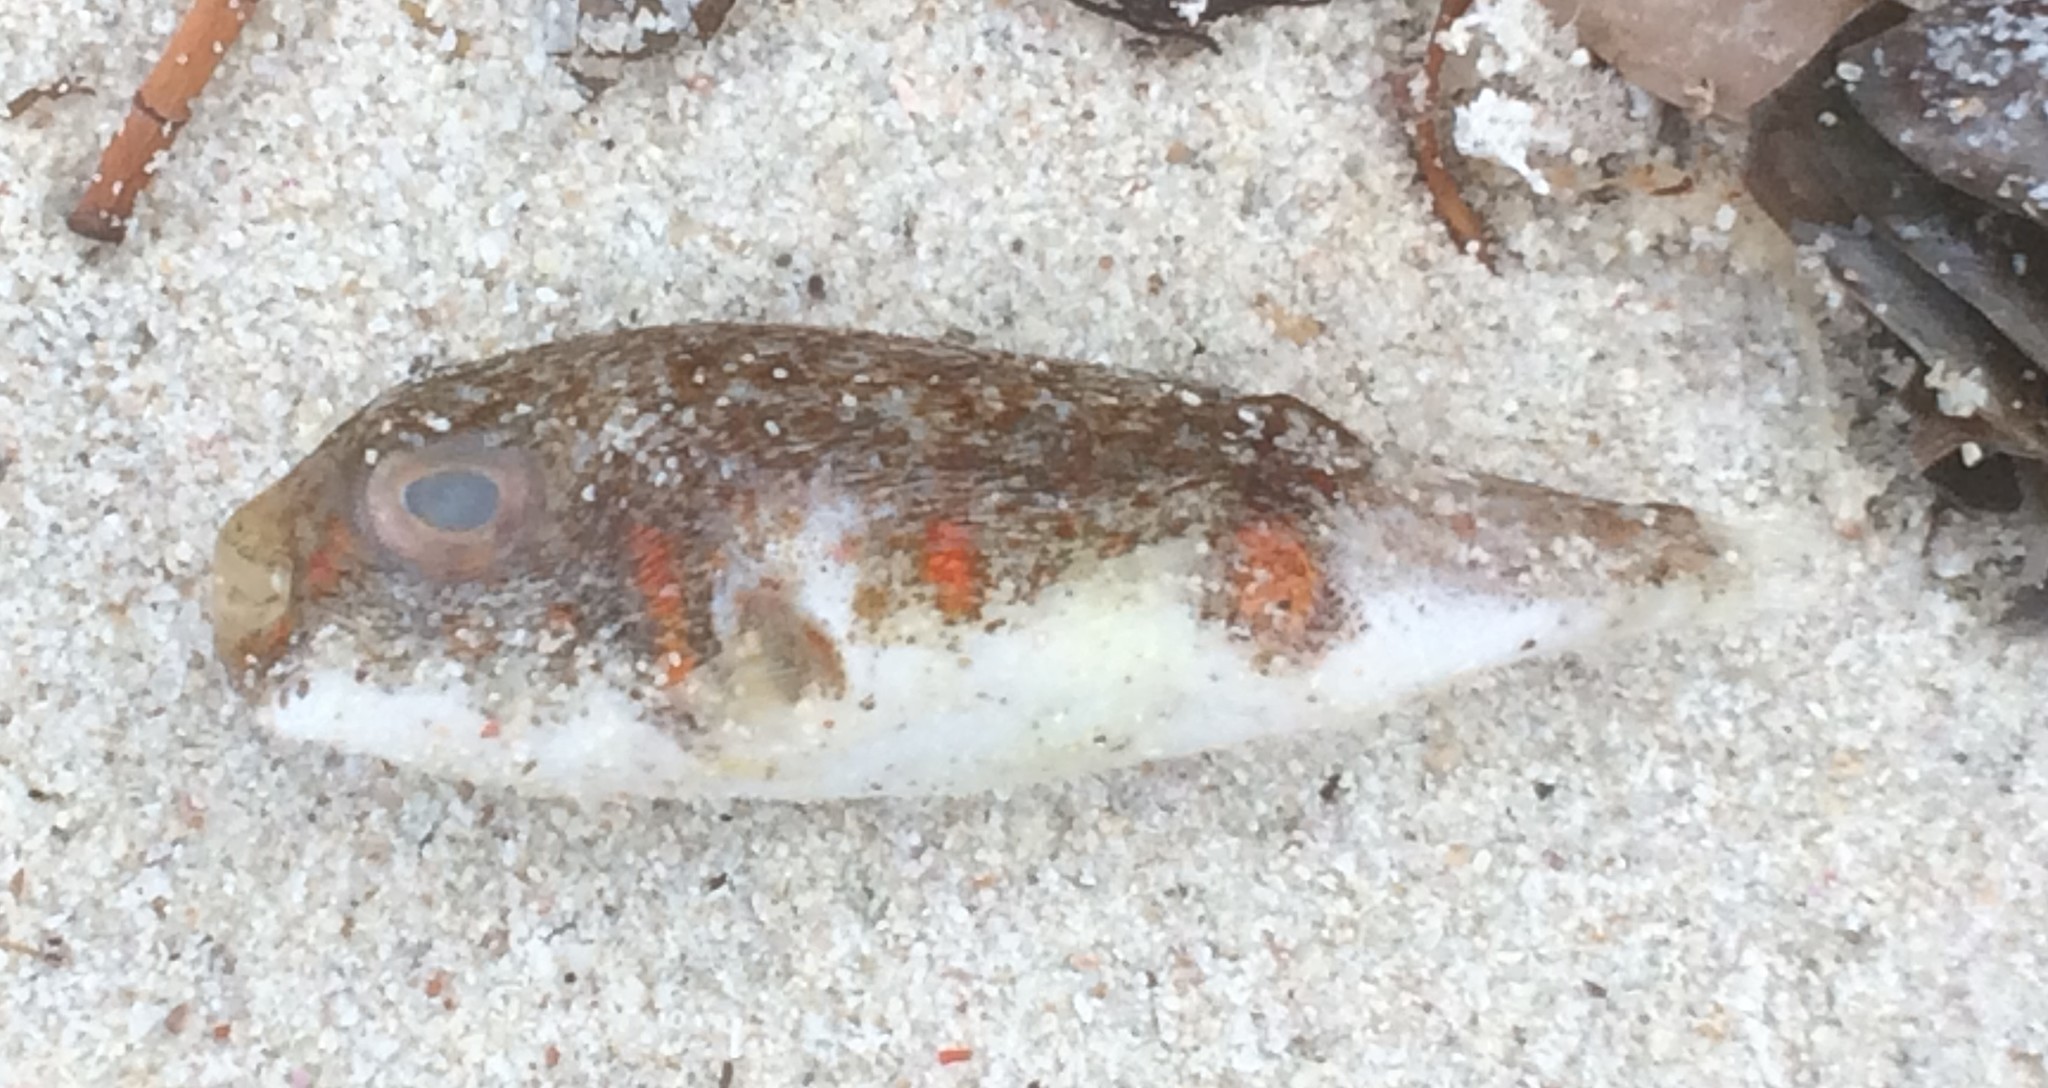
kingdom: Animalia
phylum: Chordata
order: Tetraodontiformes
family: Tetraodontidae
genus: Polyspina
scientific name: Polyspina piosae
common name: Orange-barred pufferfish
